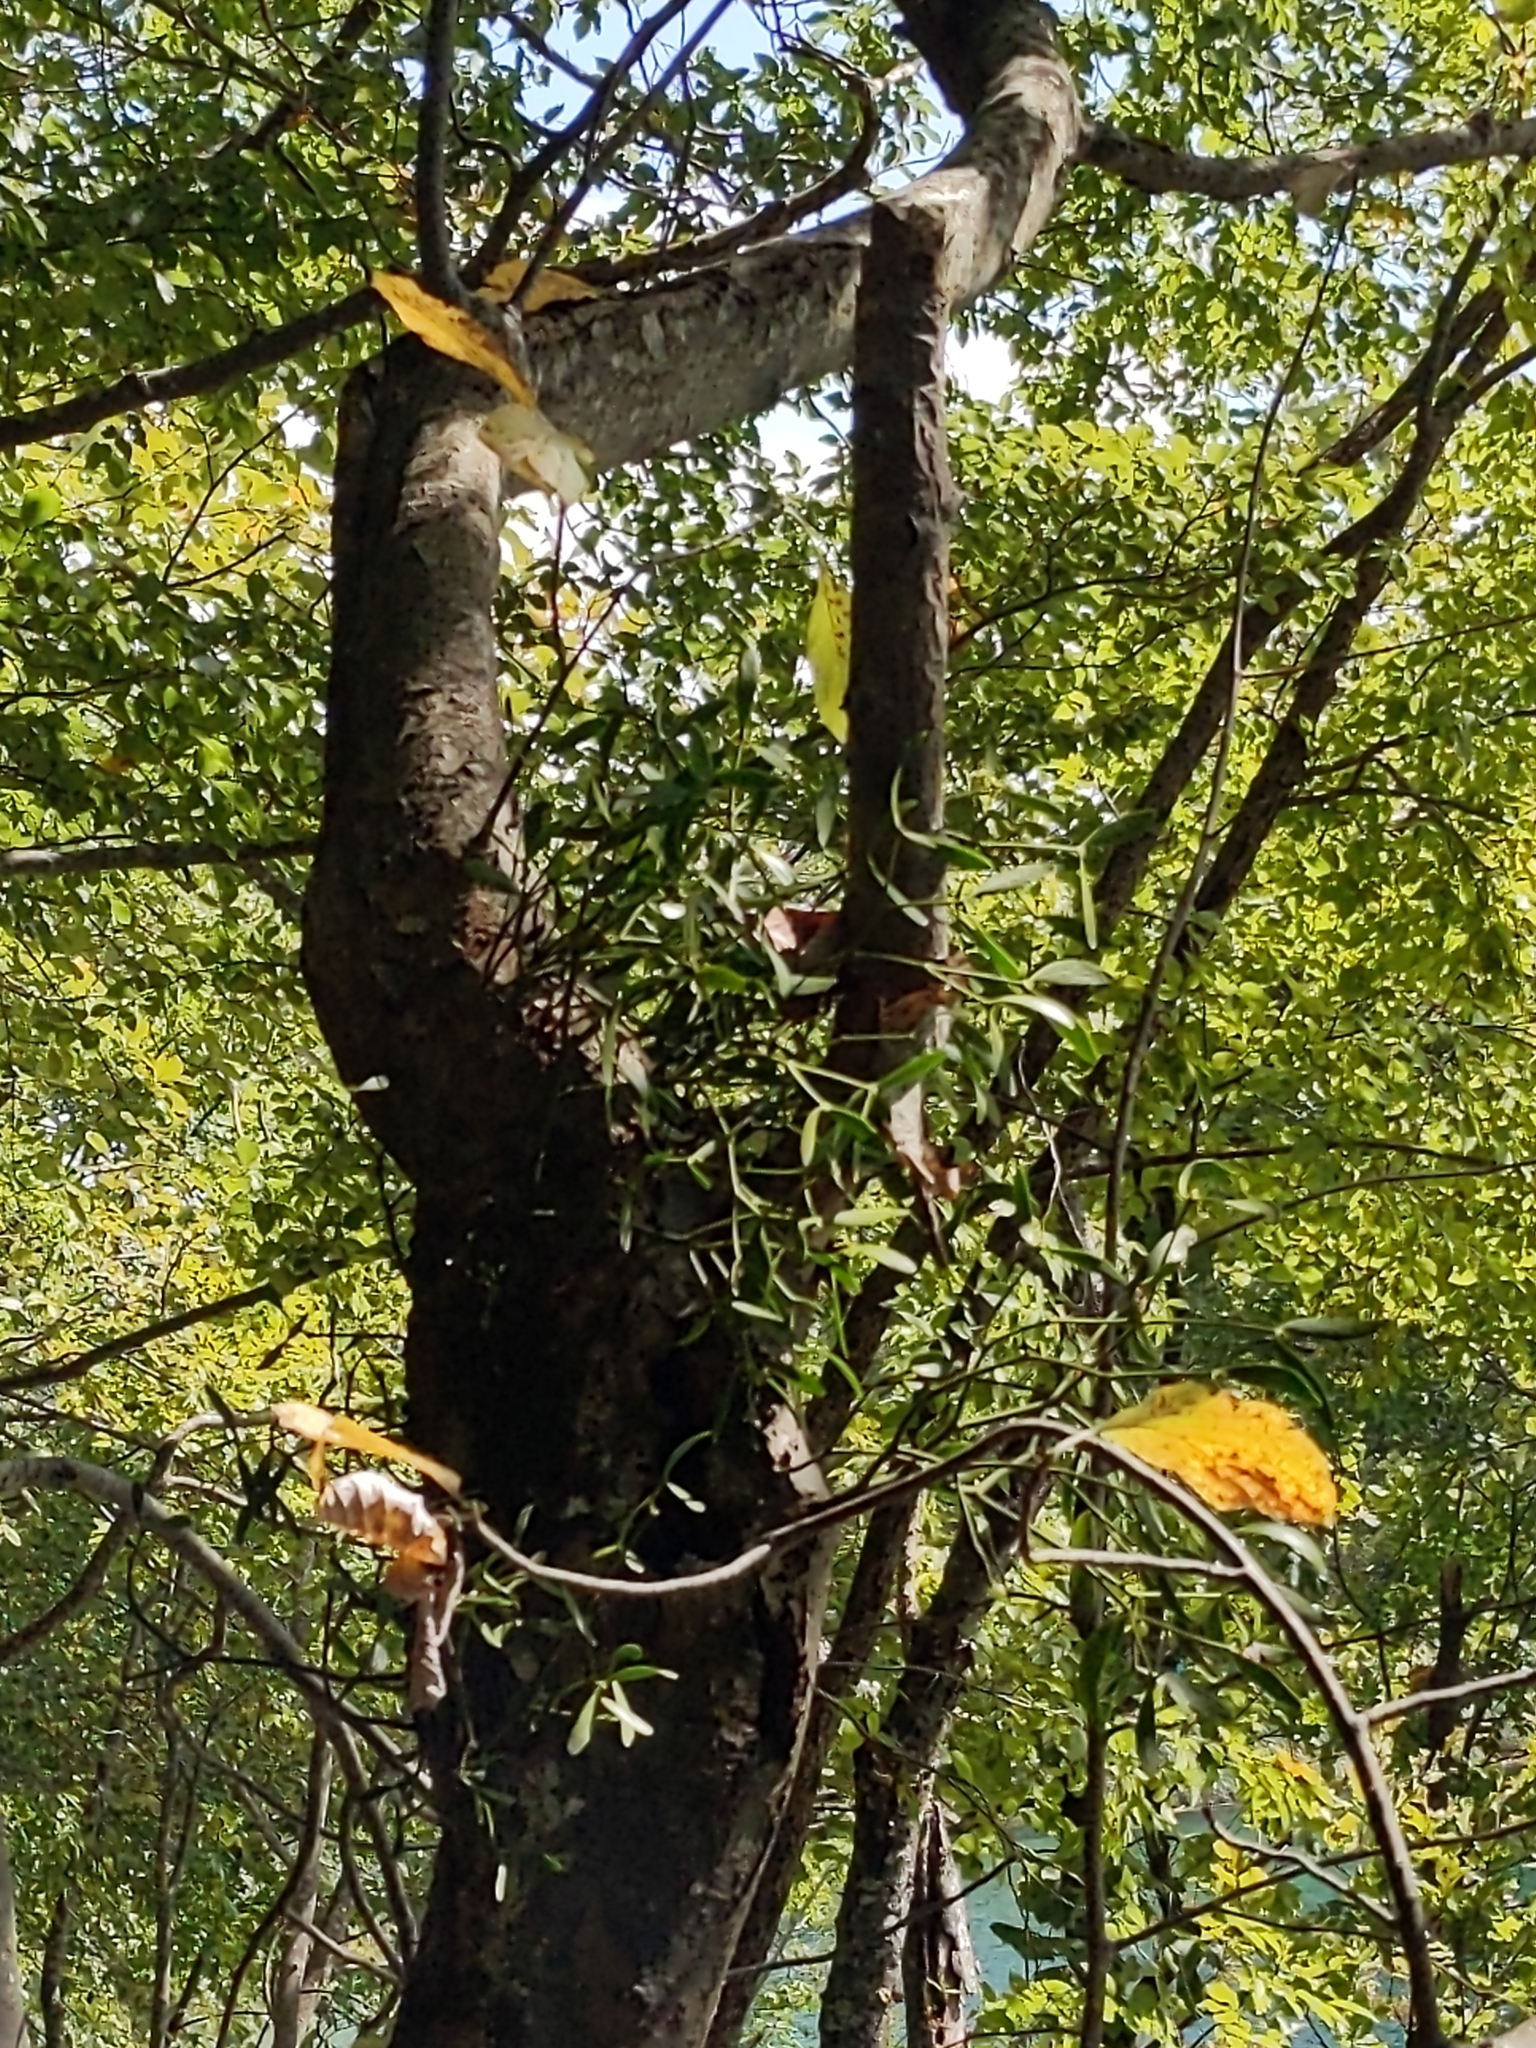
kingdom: Plantae
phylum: Tracheophyta
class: Magnoliopsida
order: Santalales
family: Viscaceae
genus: Viscum
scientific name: Viscum album
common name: Mistletoe
